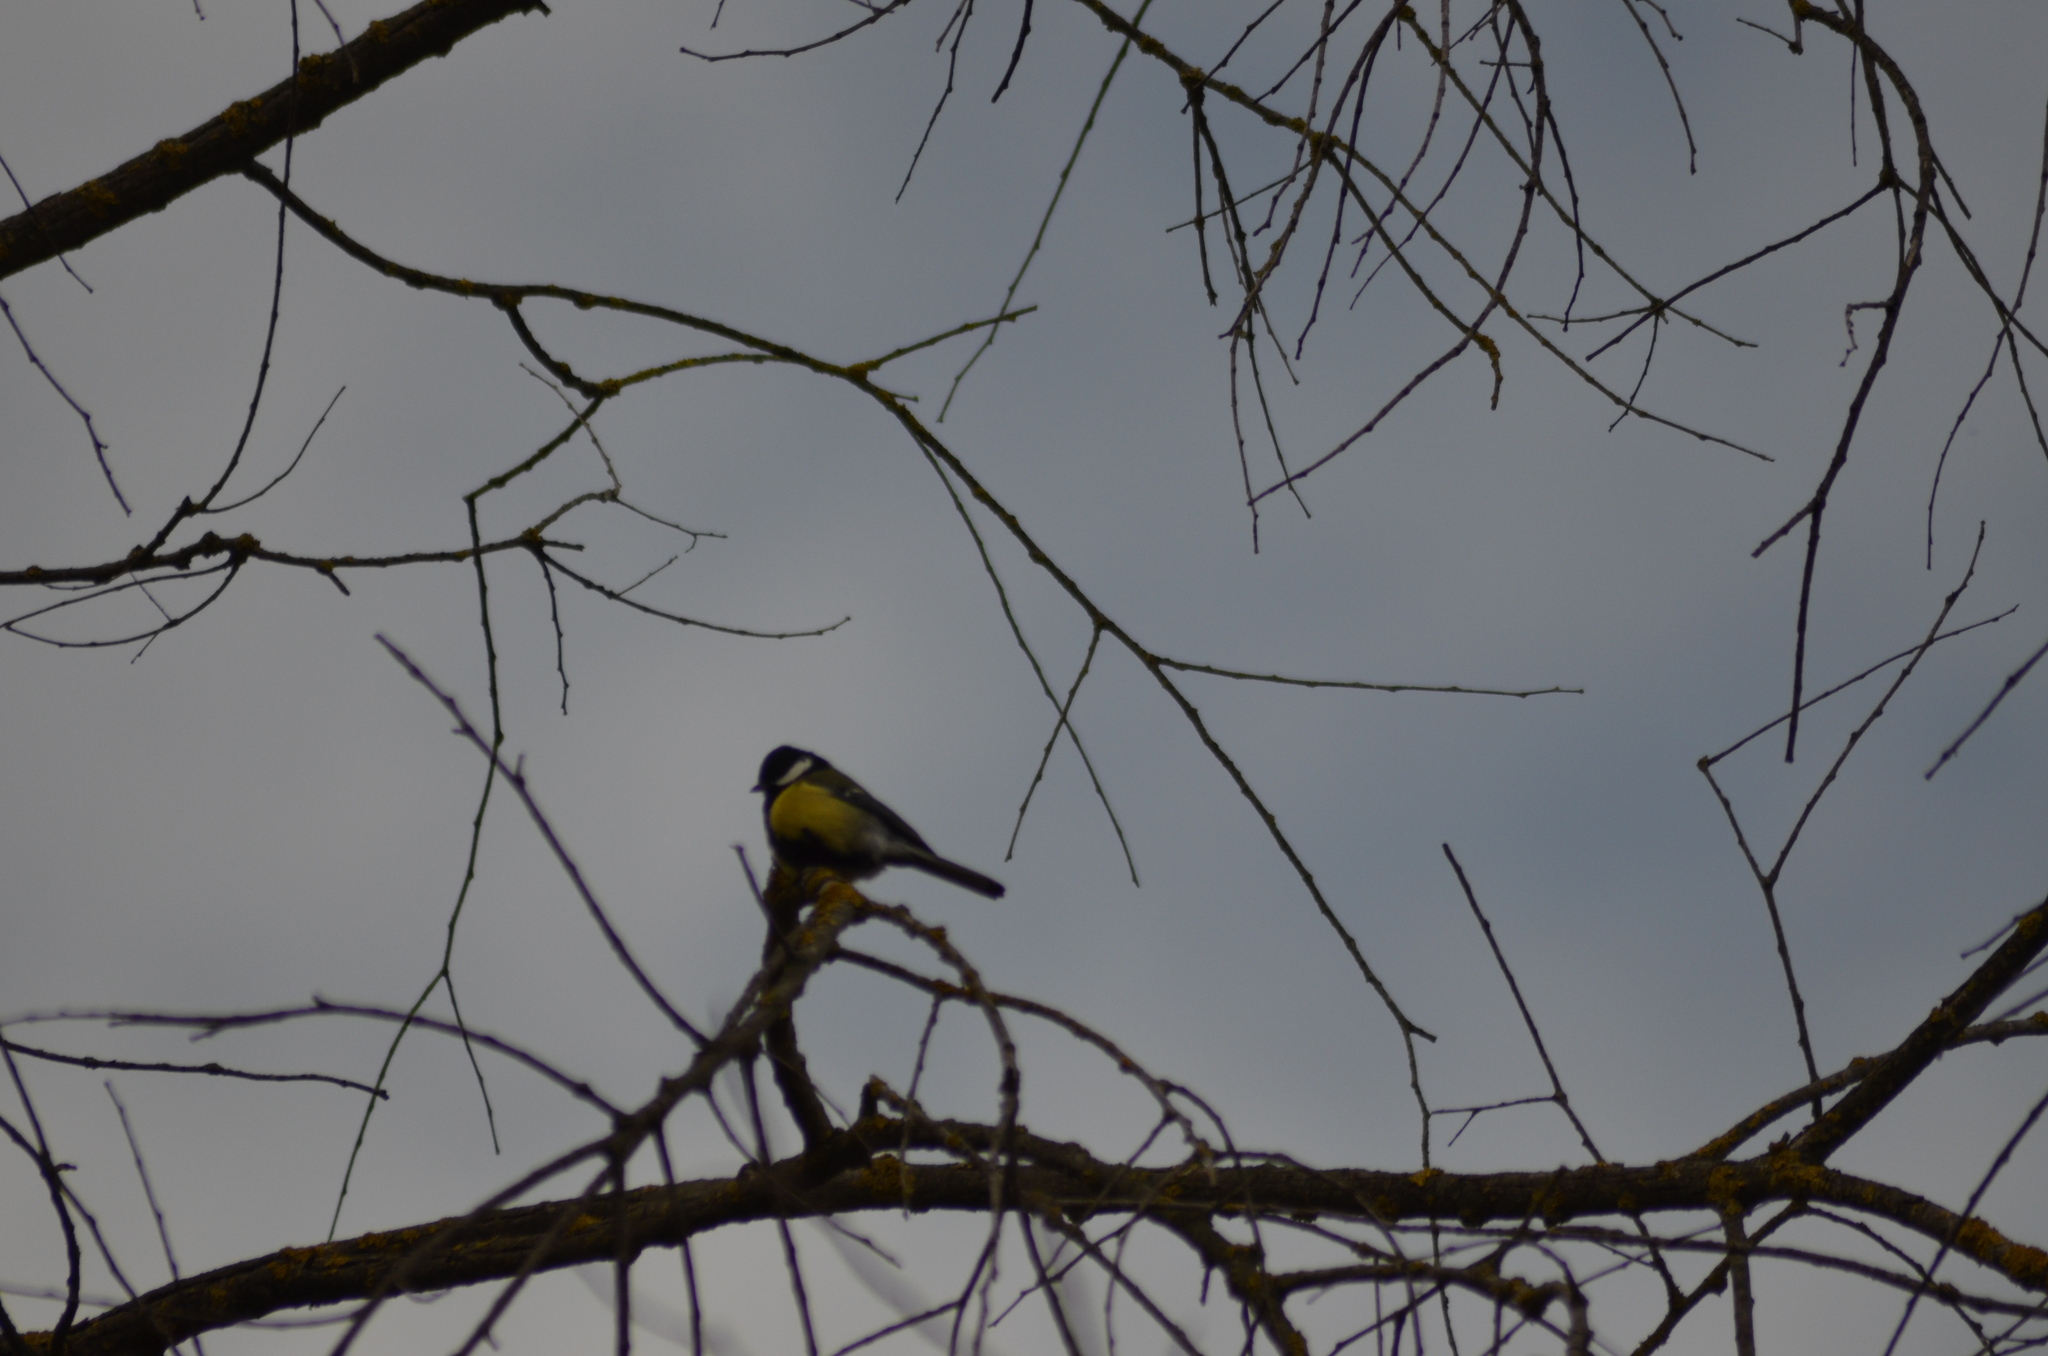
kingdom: Animalia
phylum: Chordata
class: Aves
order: Passeriformes
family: Paridae
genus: Parus
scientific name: Parus major
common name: Great tit
